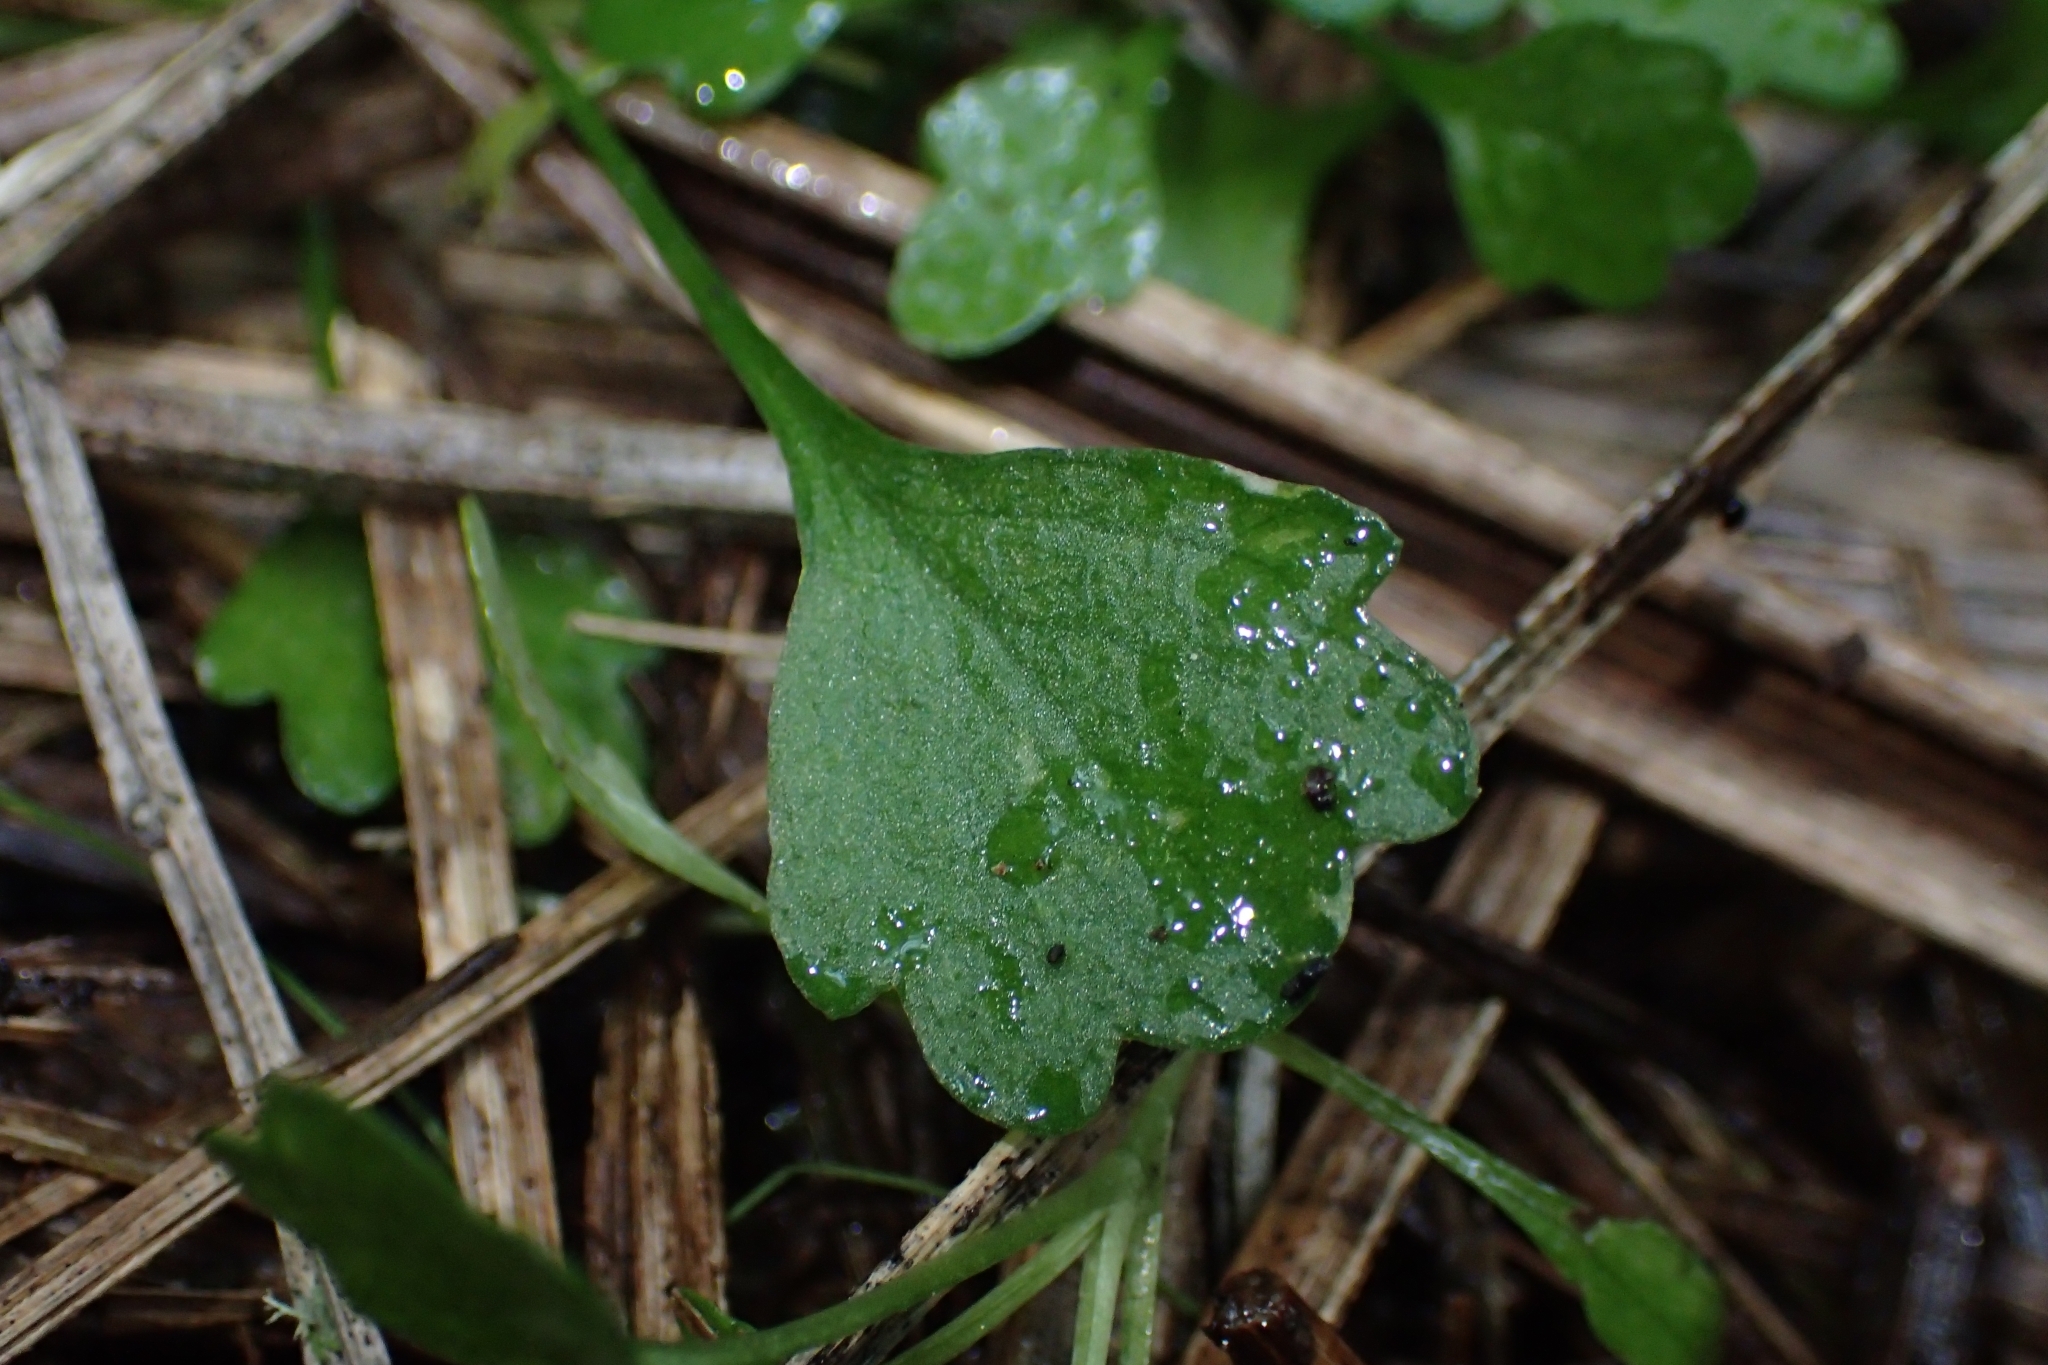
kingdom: Plantae
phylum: Tracheophyta
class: Magnoliopsida
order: Asterales
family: Asteraceae
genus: Lagenophora
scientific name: Lagenophora strangulata
